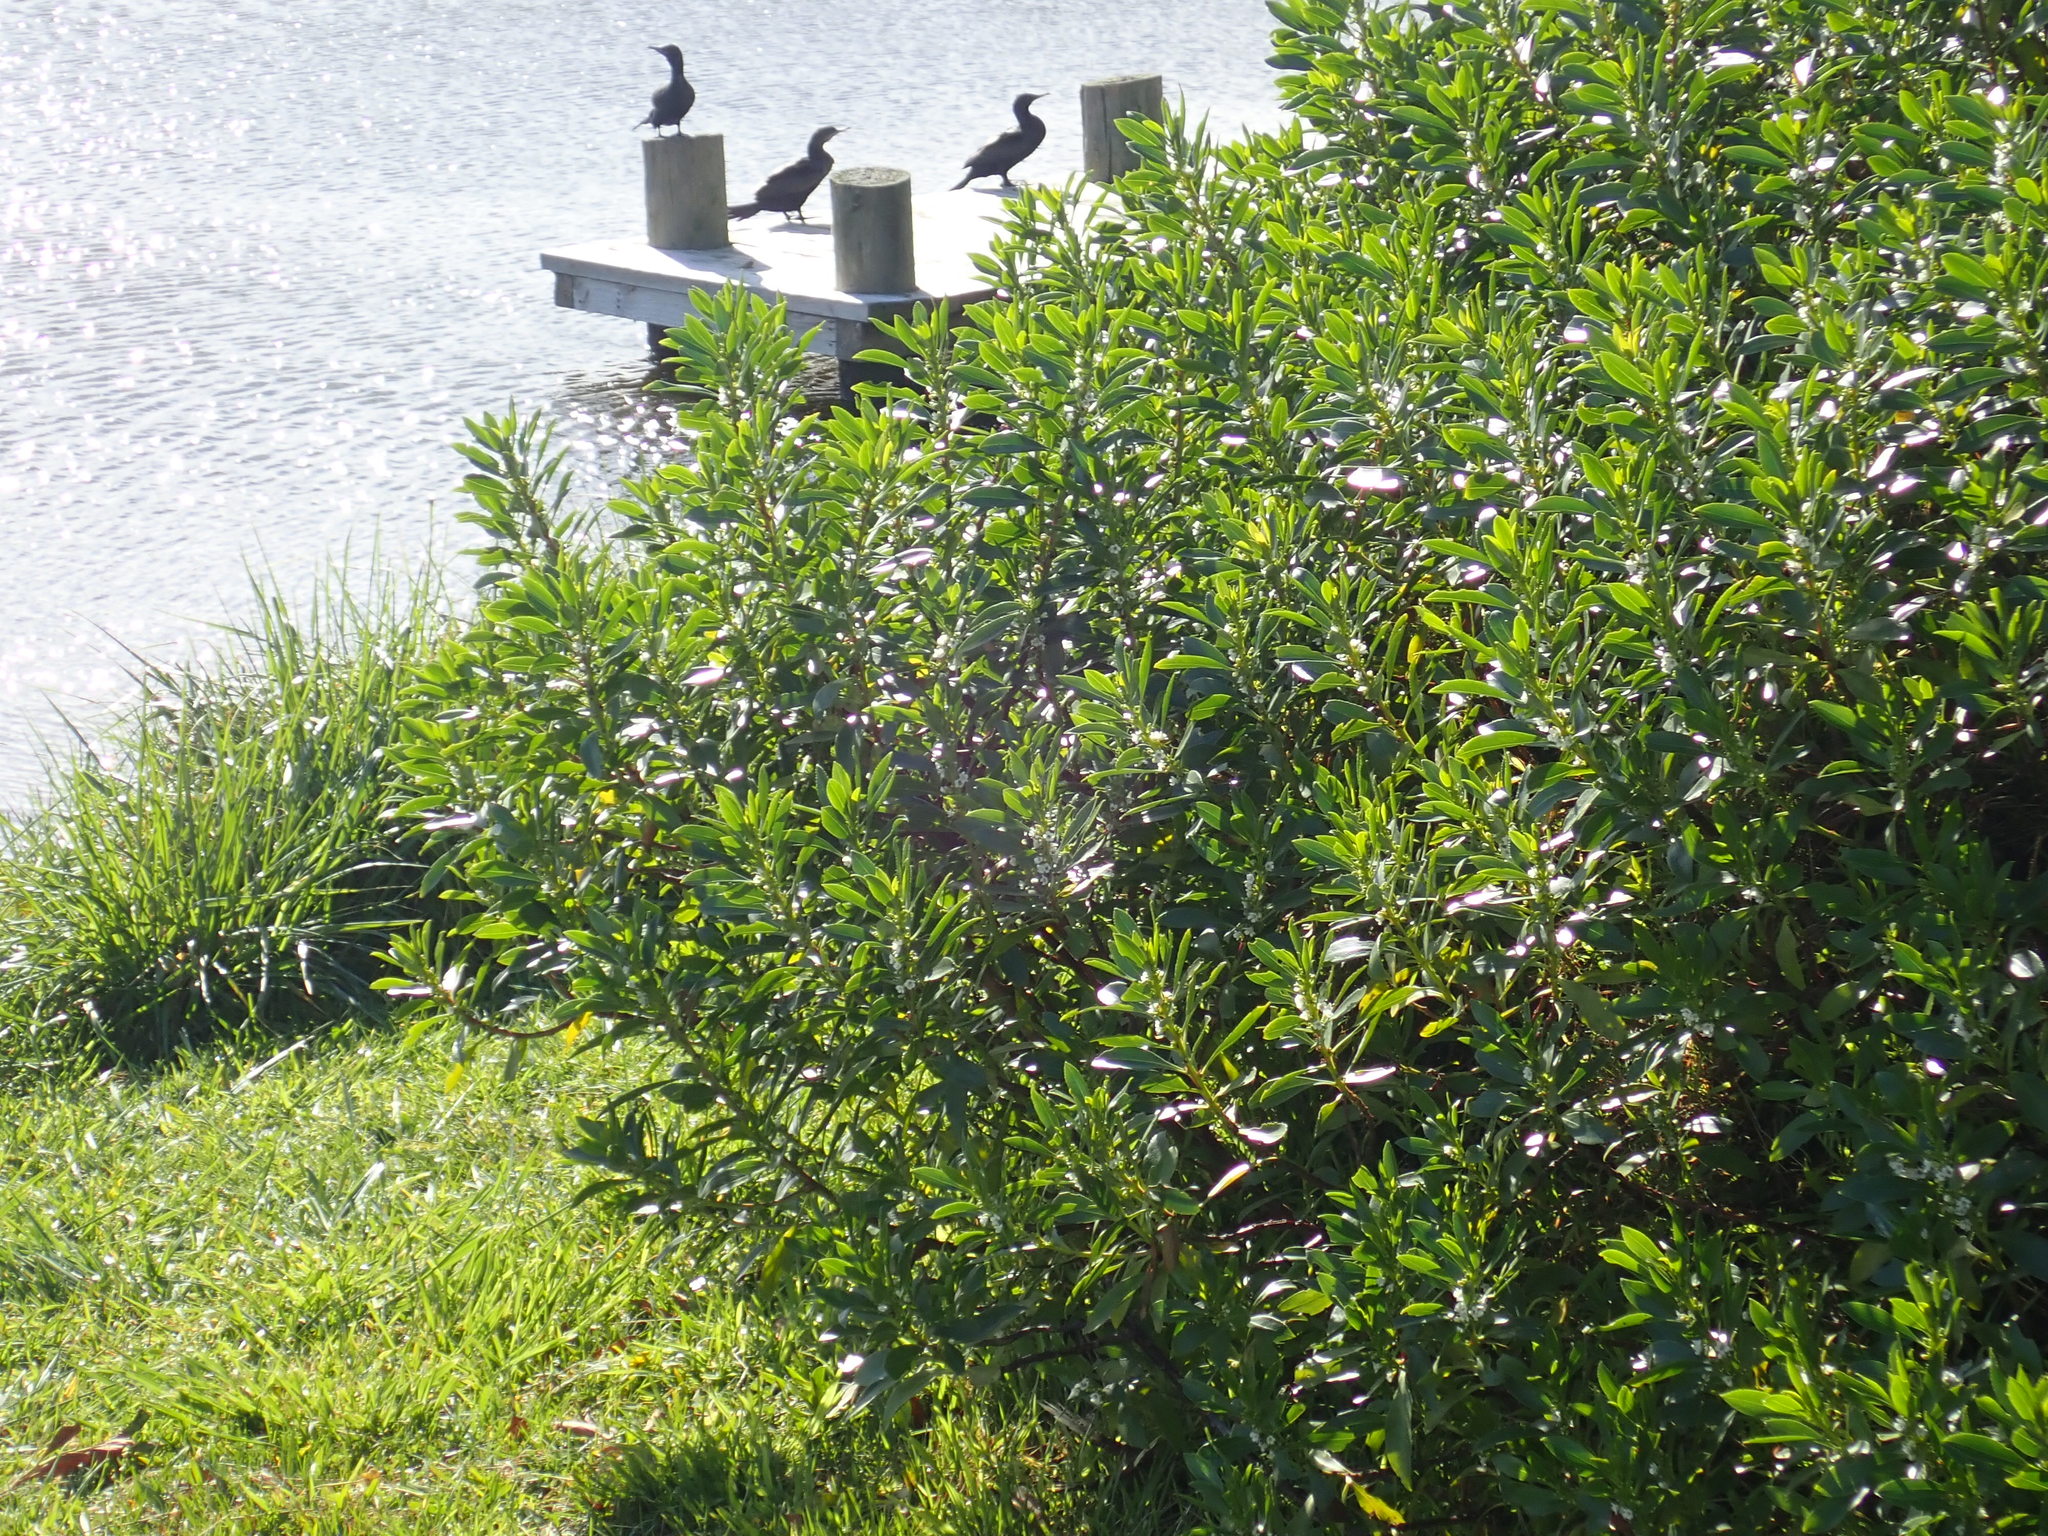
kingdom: Animalia
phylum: Chordata
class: Aves
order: Suliformes
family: Phalacrocoracidae
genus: Phalacrocorax
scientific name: Phalacrocorax sulcirostris
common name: Little black cormorant
